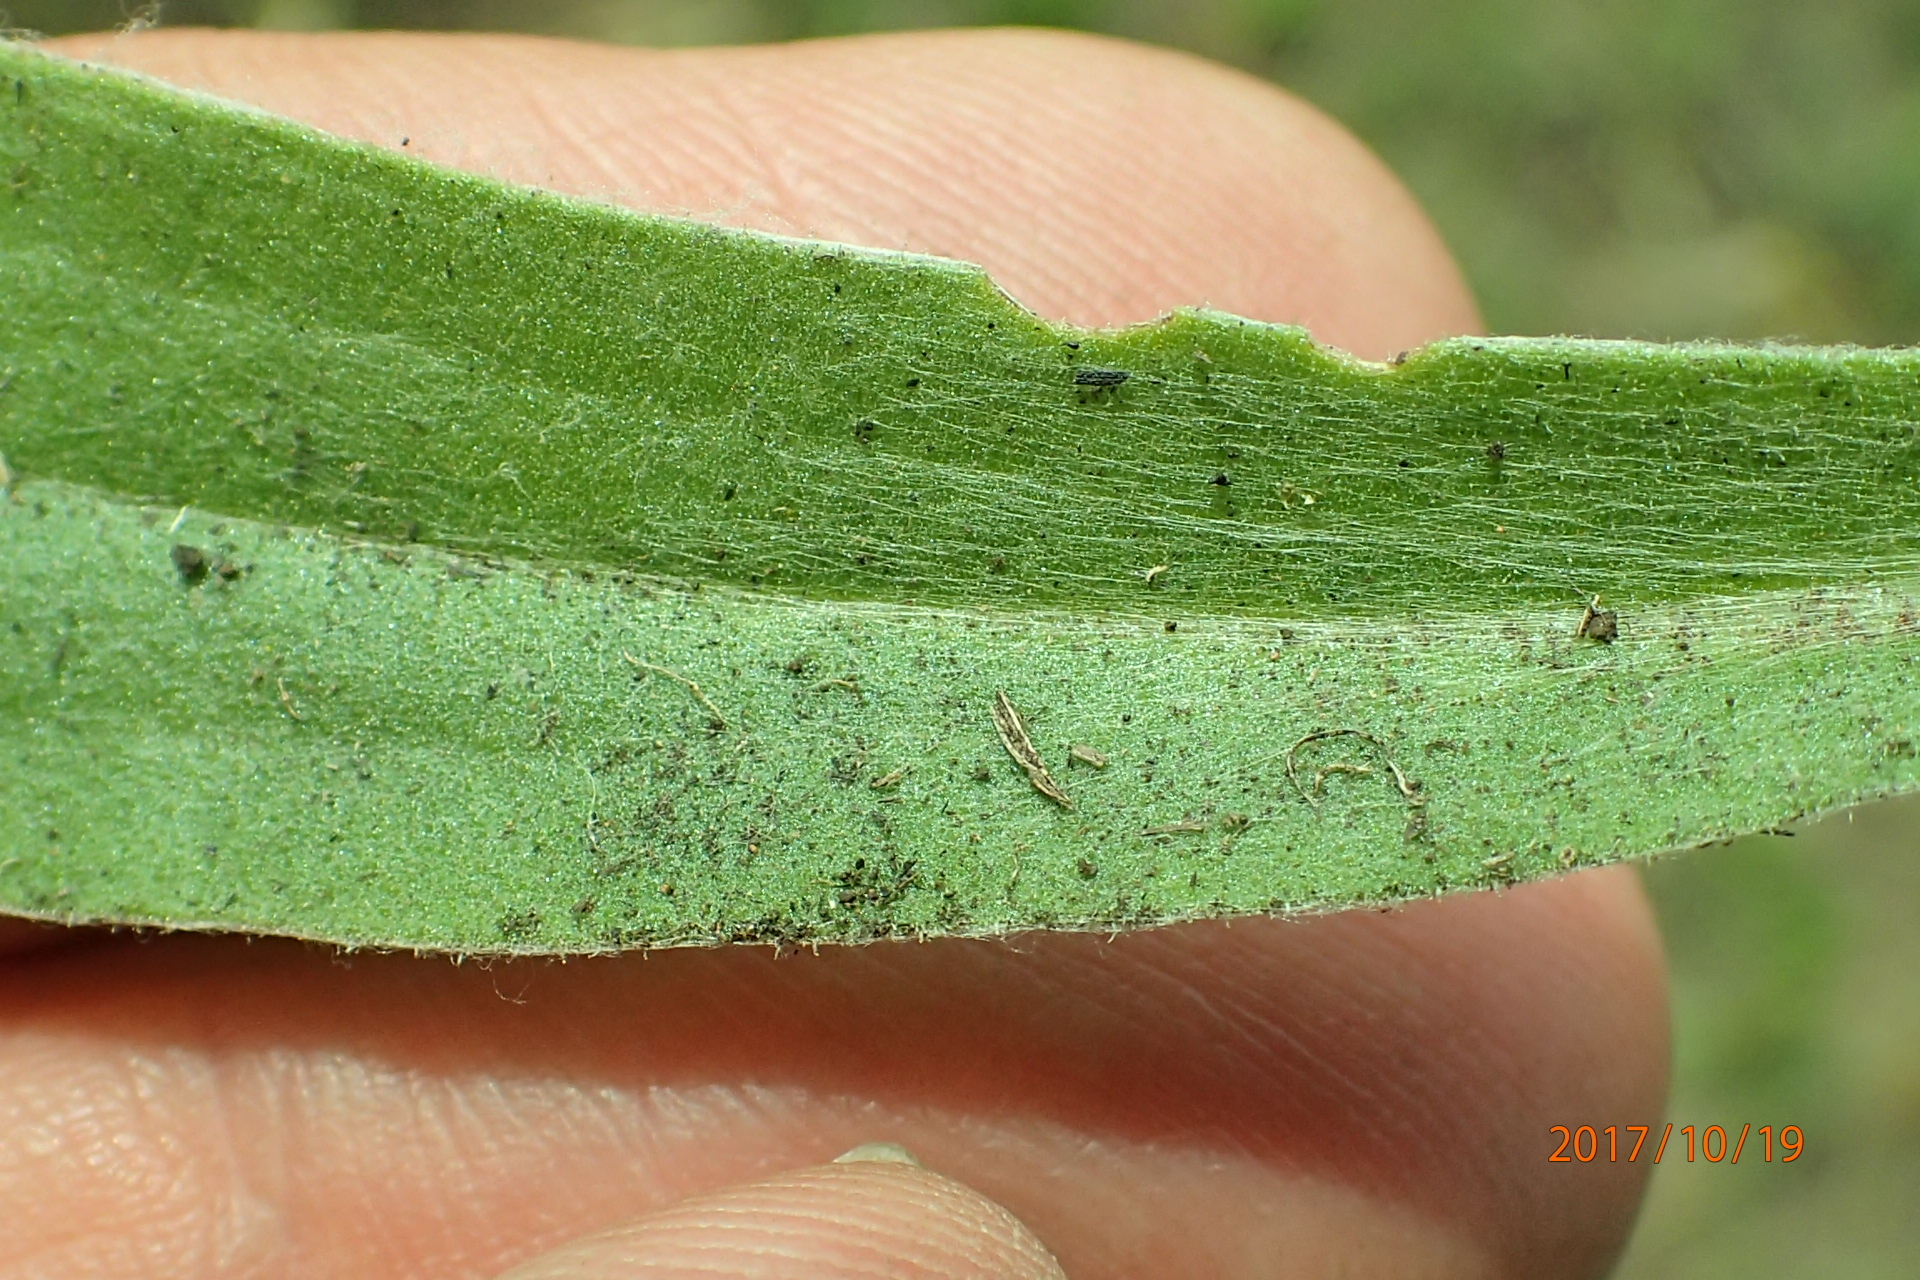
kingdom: Plantae
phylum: Tracheophyta
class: Magnoliopsida
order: Asterales
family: Asteraceae
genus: Helichrysum
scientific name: Helichrysum aureum
